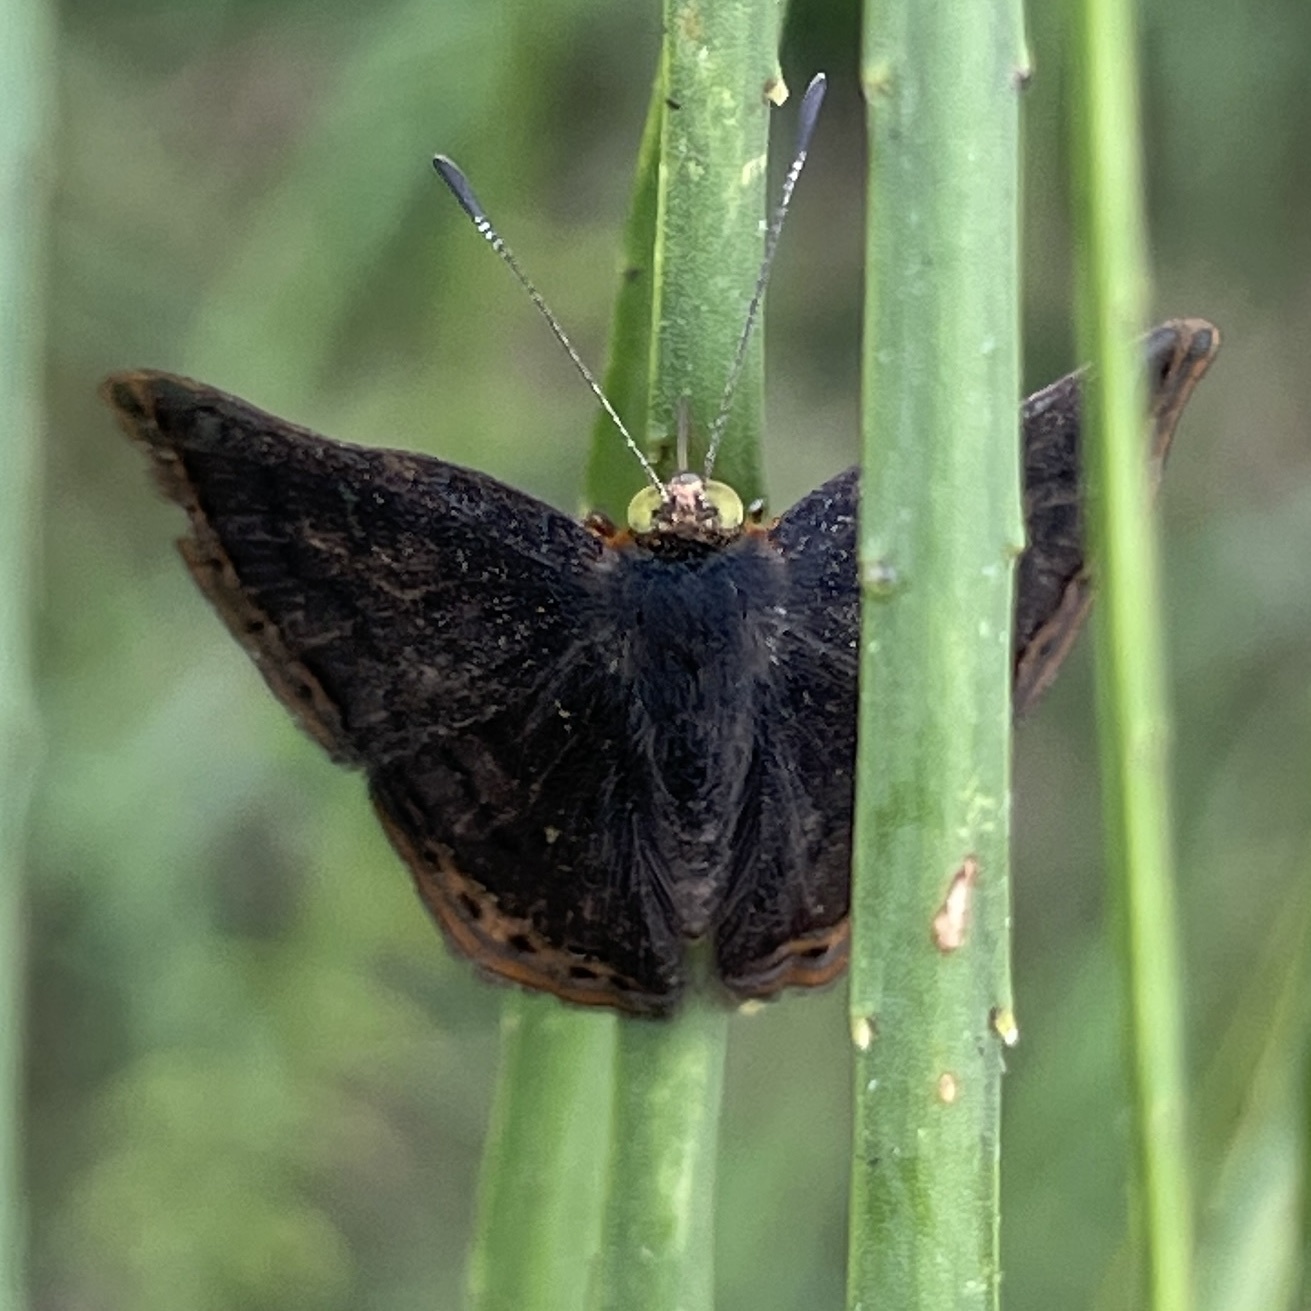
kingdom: Animalia
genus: Caria
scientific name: Caria ino
